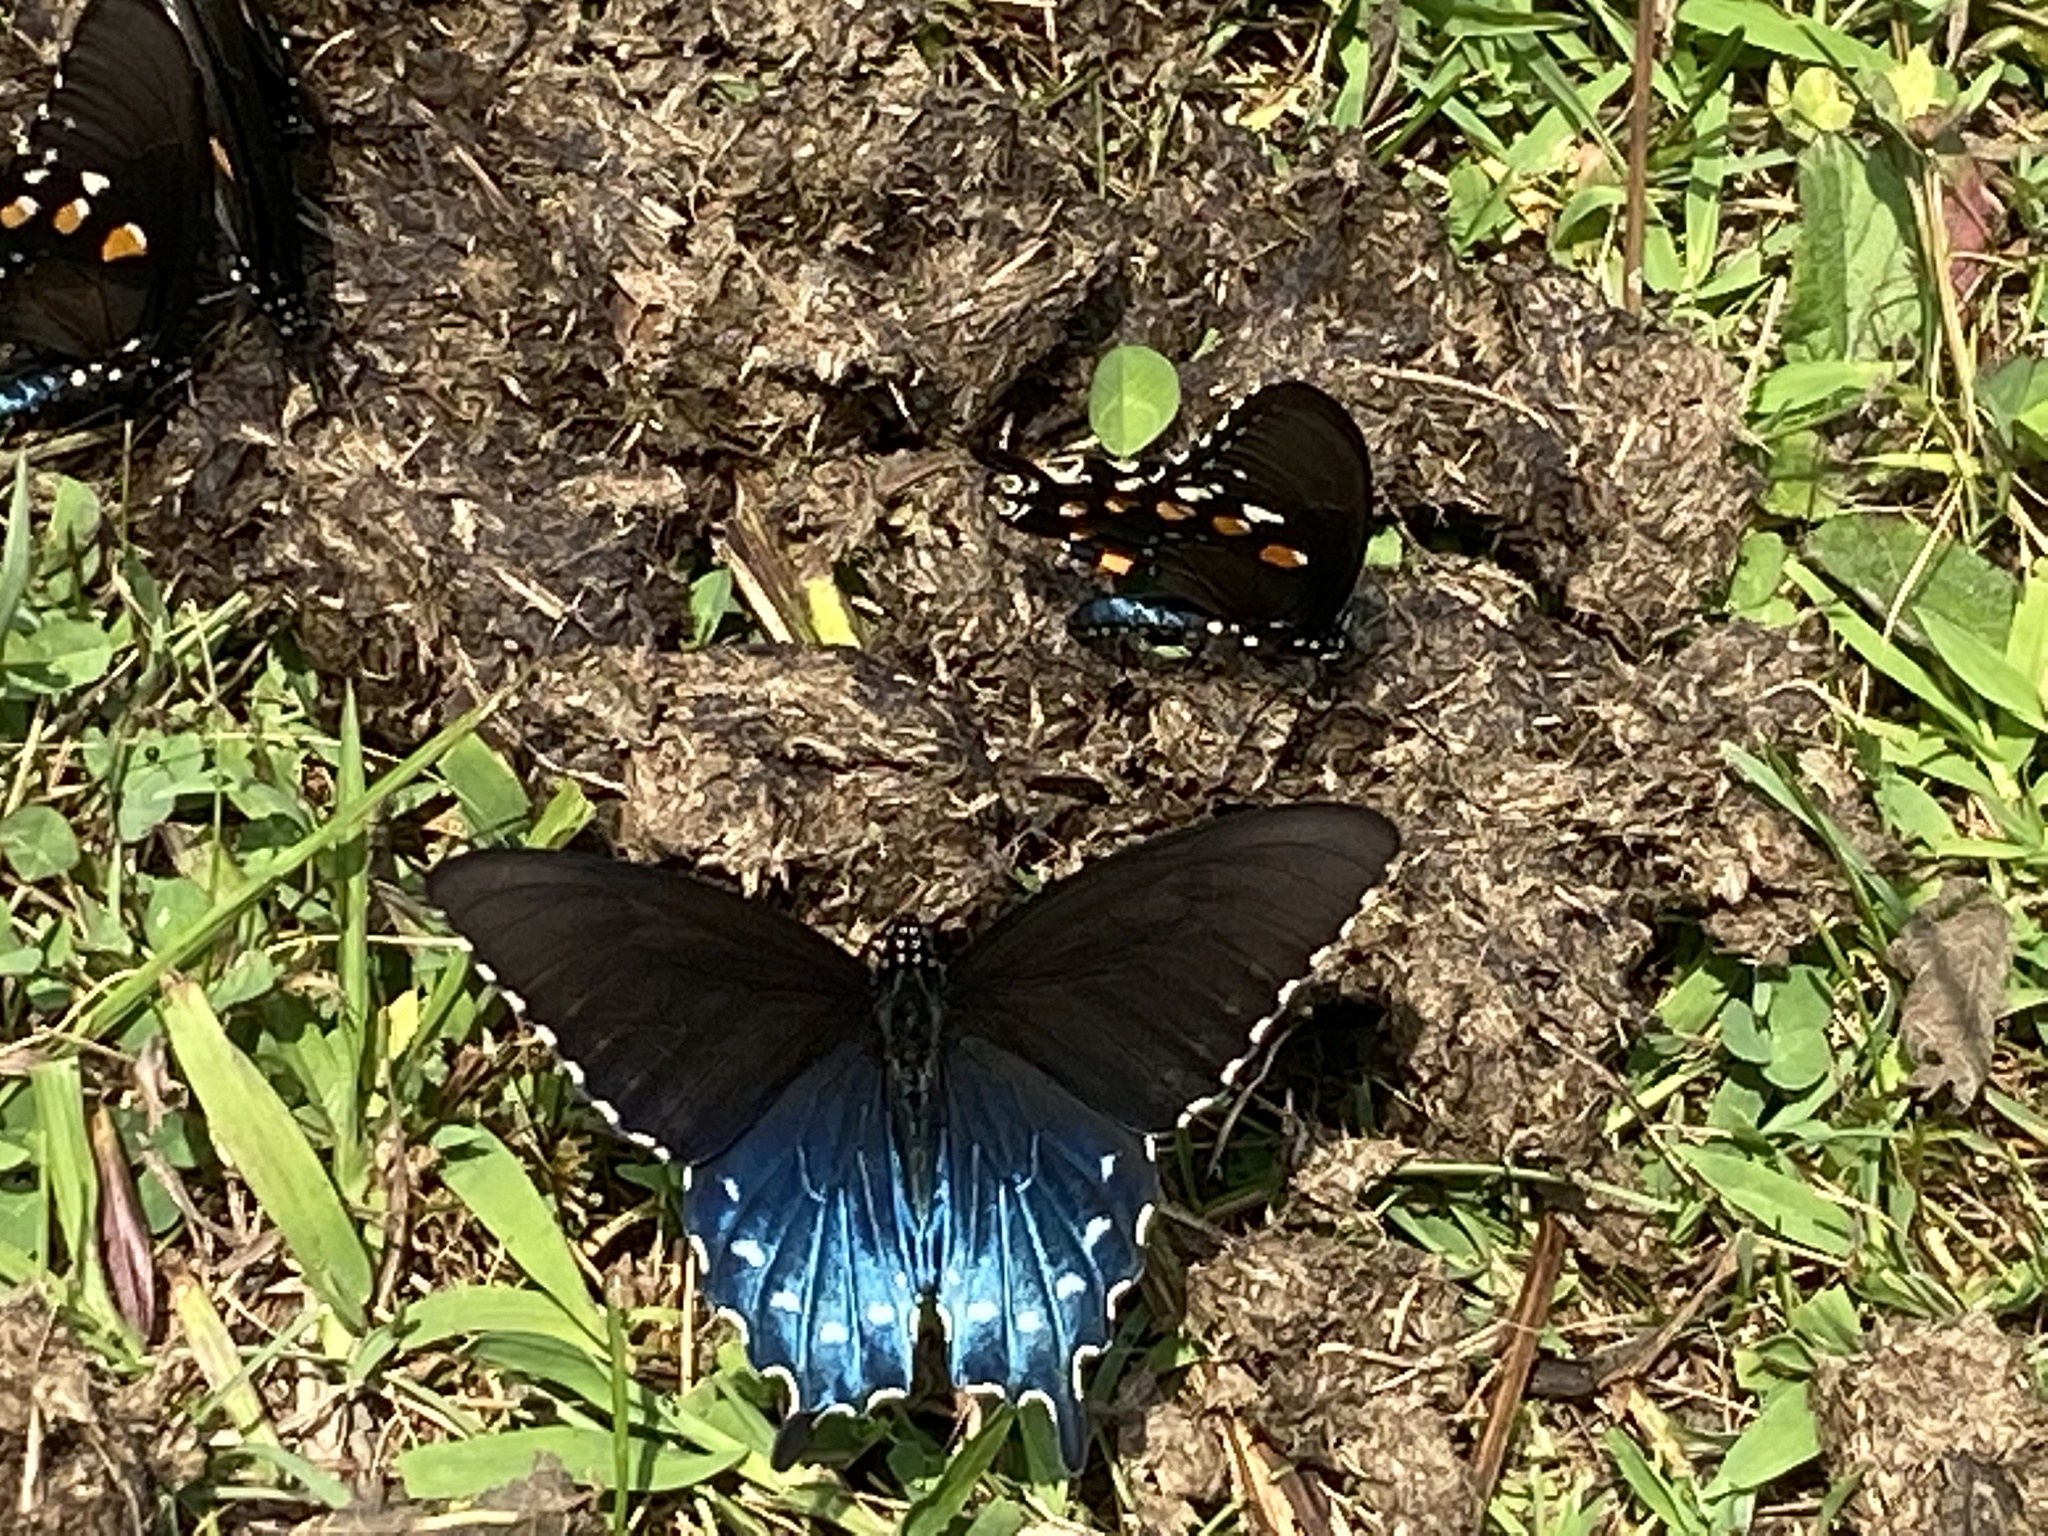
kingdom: Animalia
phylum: Arthropoda
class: Insecta
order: Lepidoptera
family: Papilionidae
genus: Battus
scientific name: Battus philenor
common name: Pipevine swallowtail
